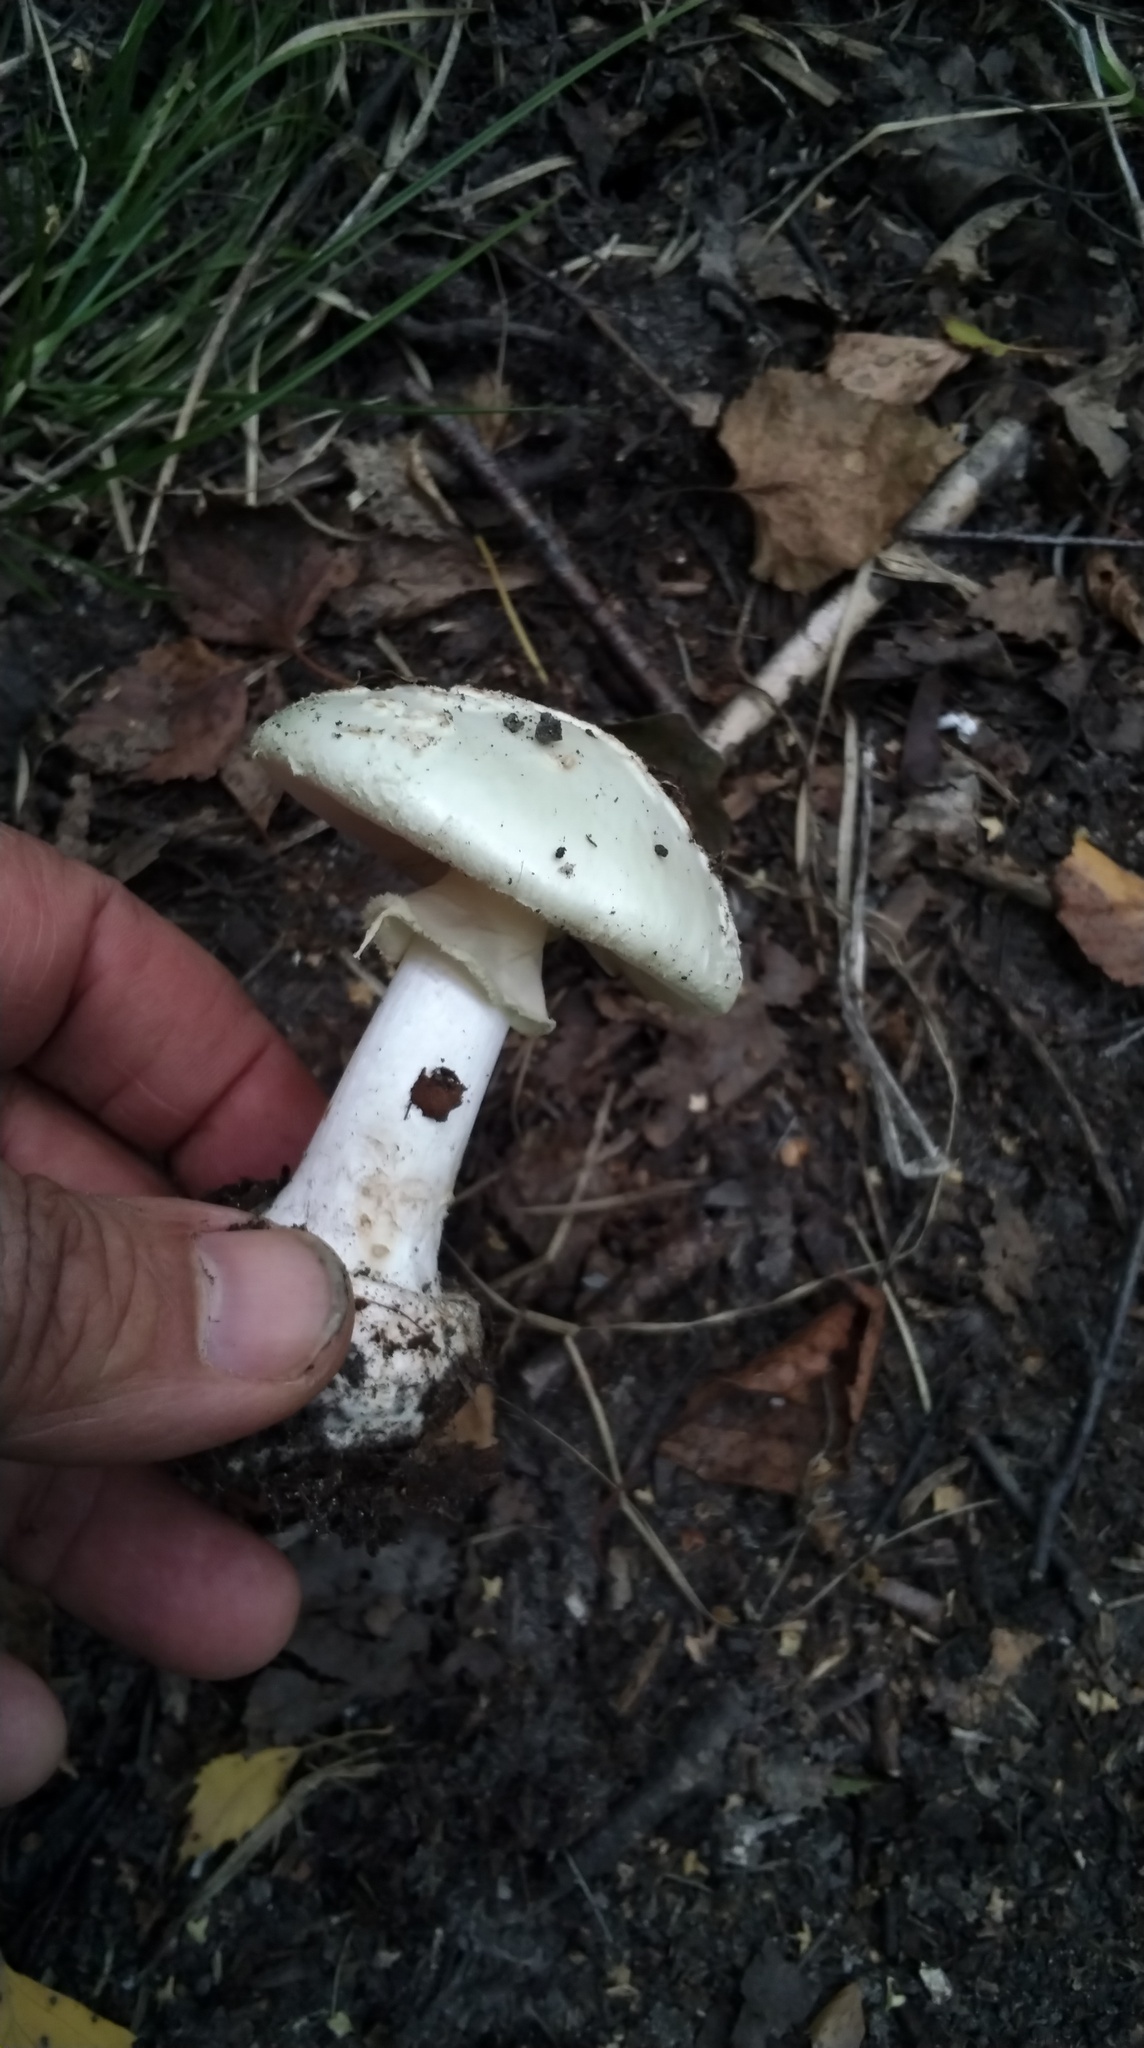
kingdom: Fungi
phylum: Basidiomycota
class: Agaricomycetes
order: Agaricales
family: Amanitaceae
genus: Amanita
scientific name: Amanita citrina
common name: False death-cap
